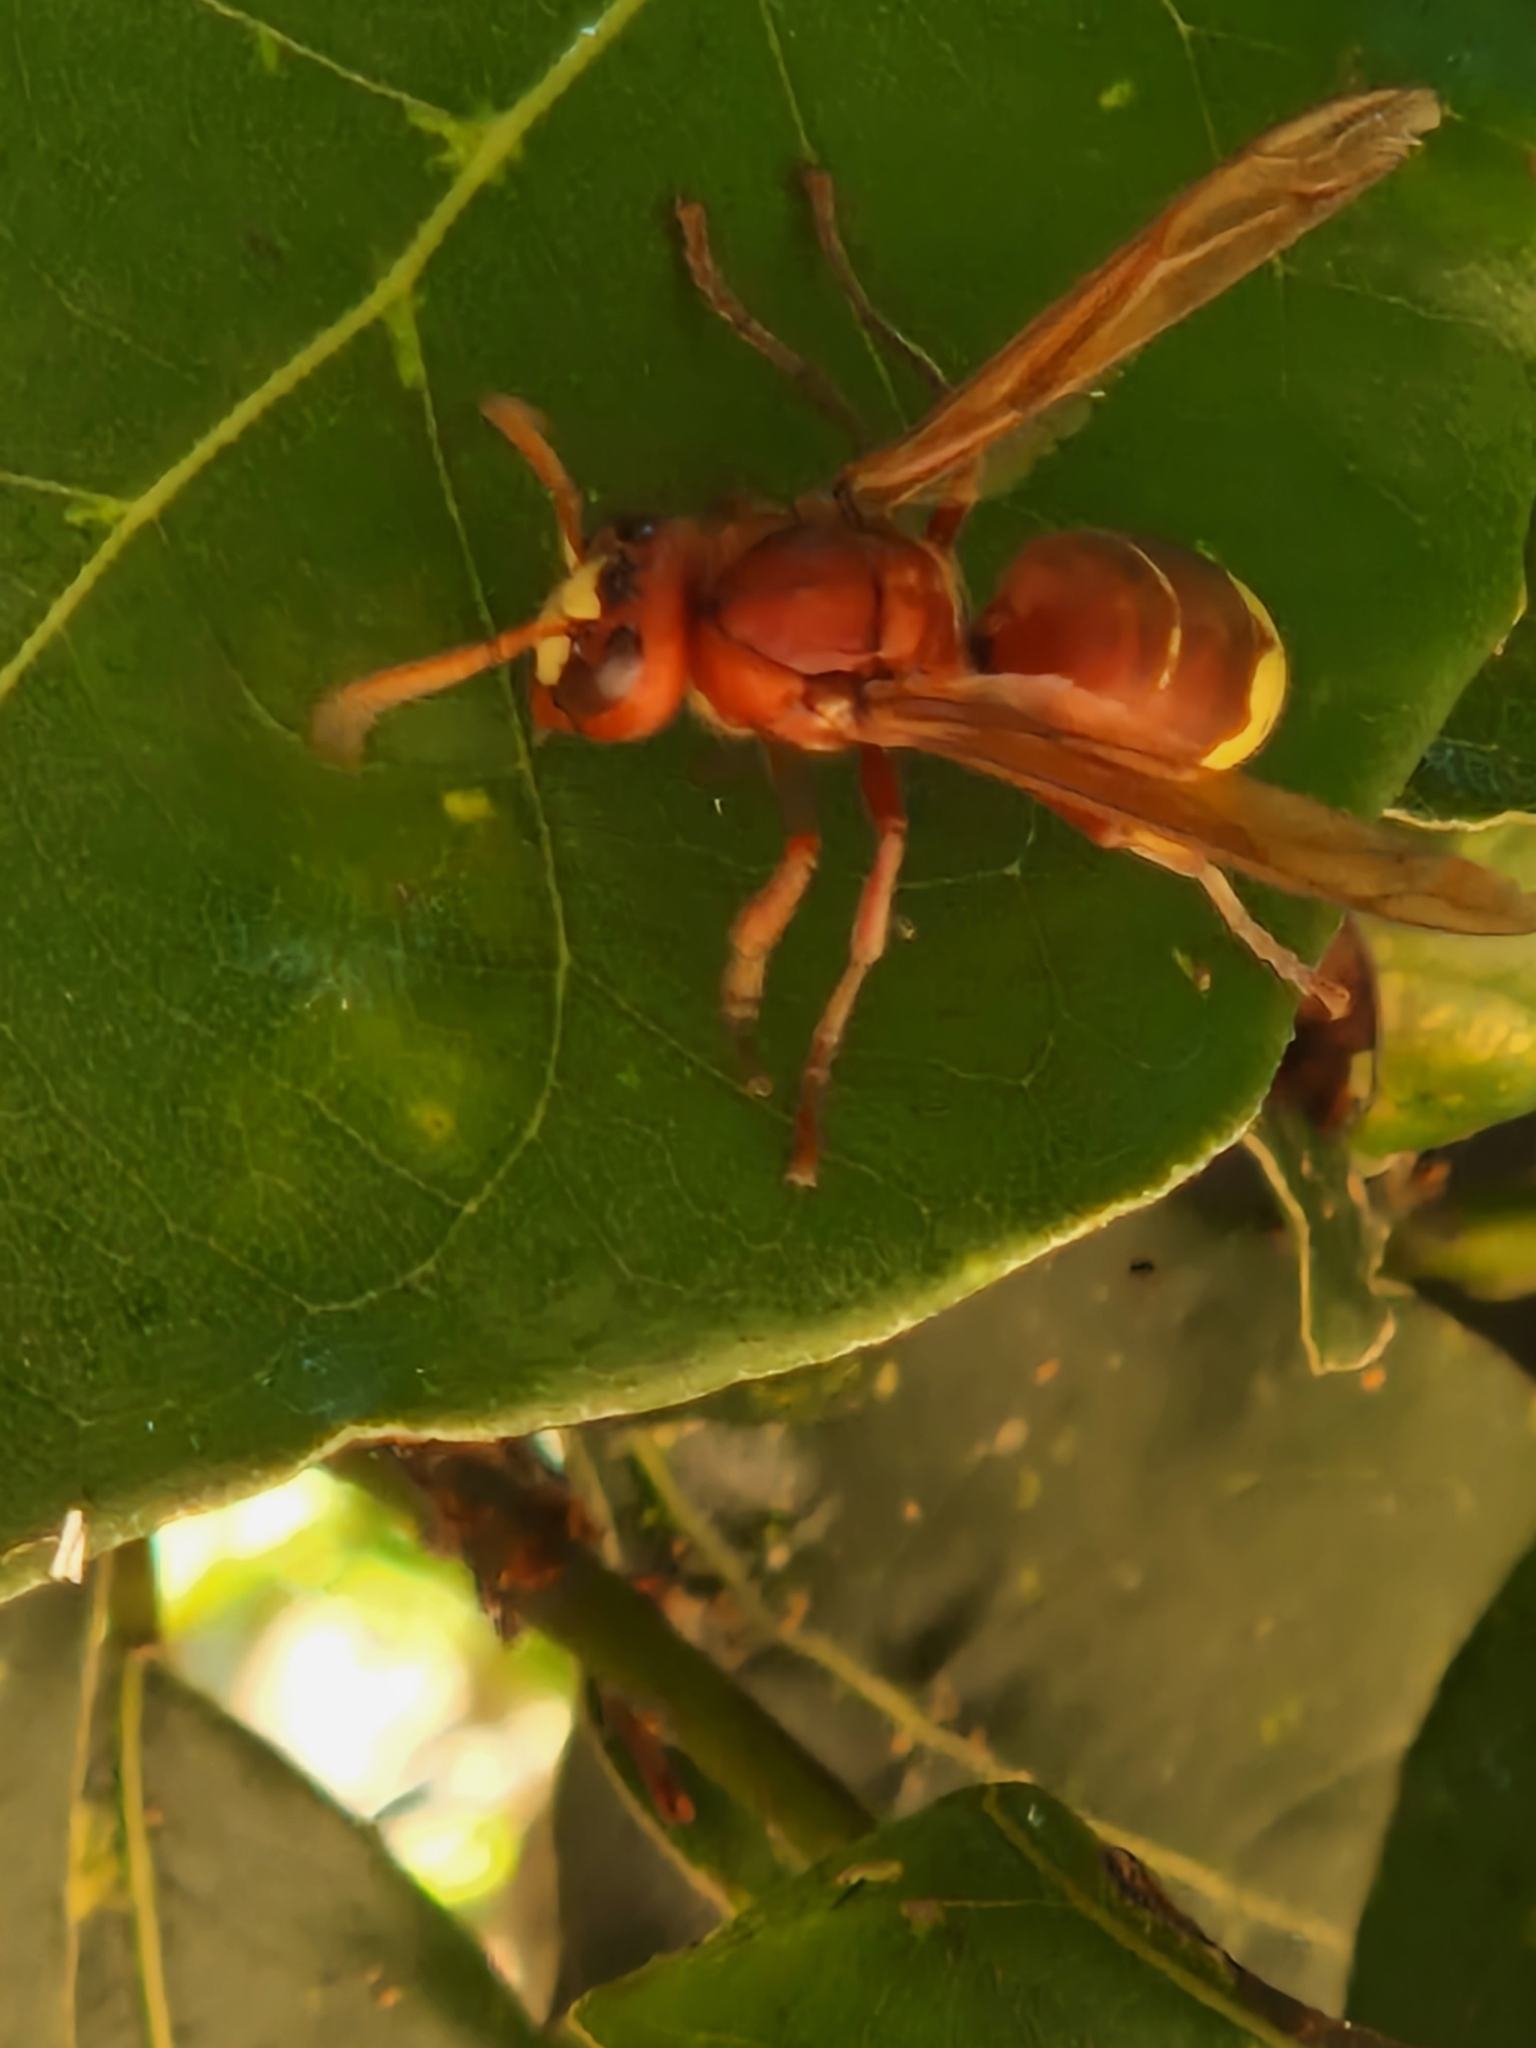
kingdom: Animalia
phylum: Arthropoda
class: Insecta
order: Hymenoptera
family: Vespidae
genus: Vespa
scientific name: Vespa orientalis
